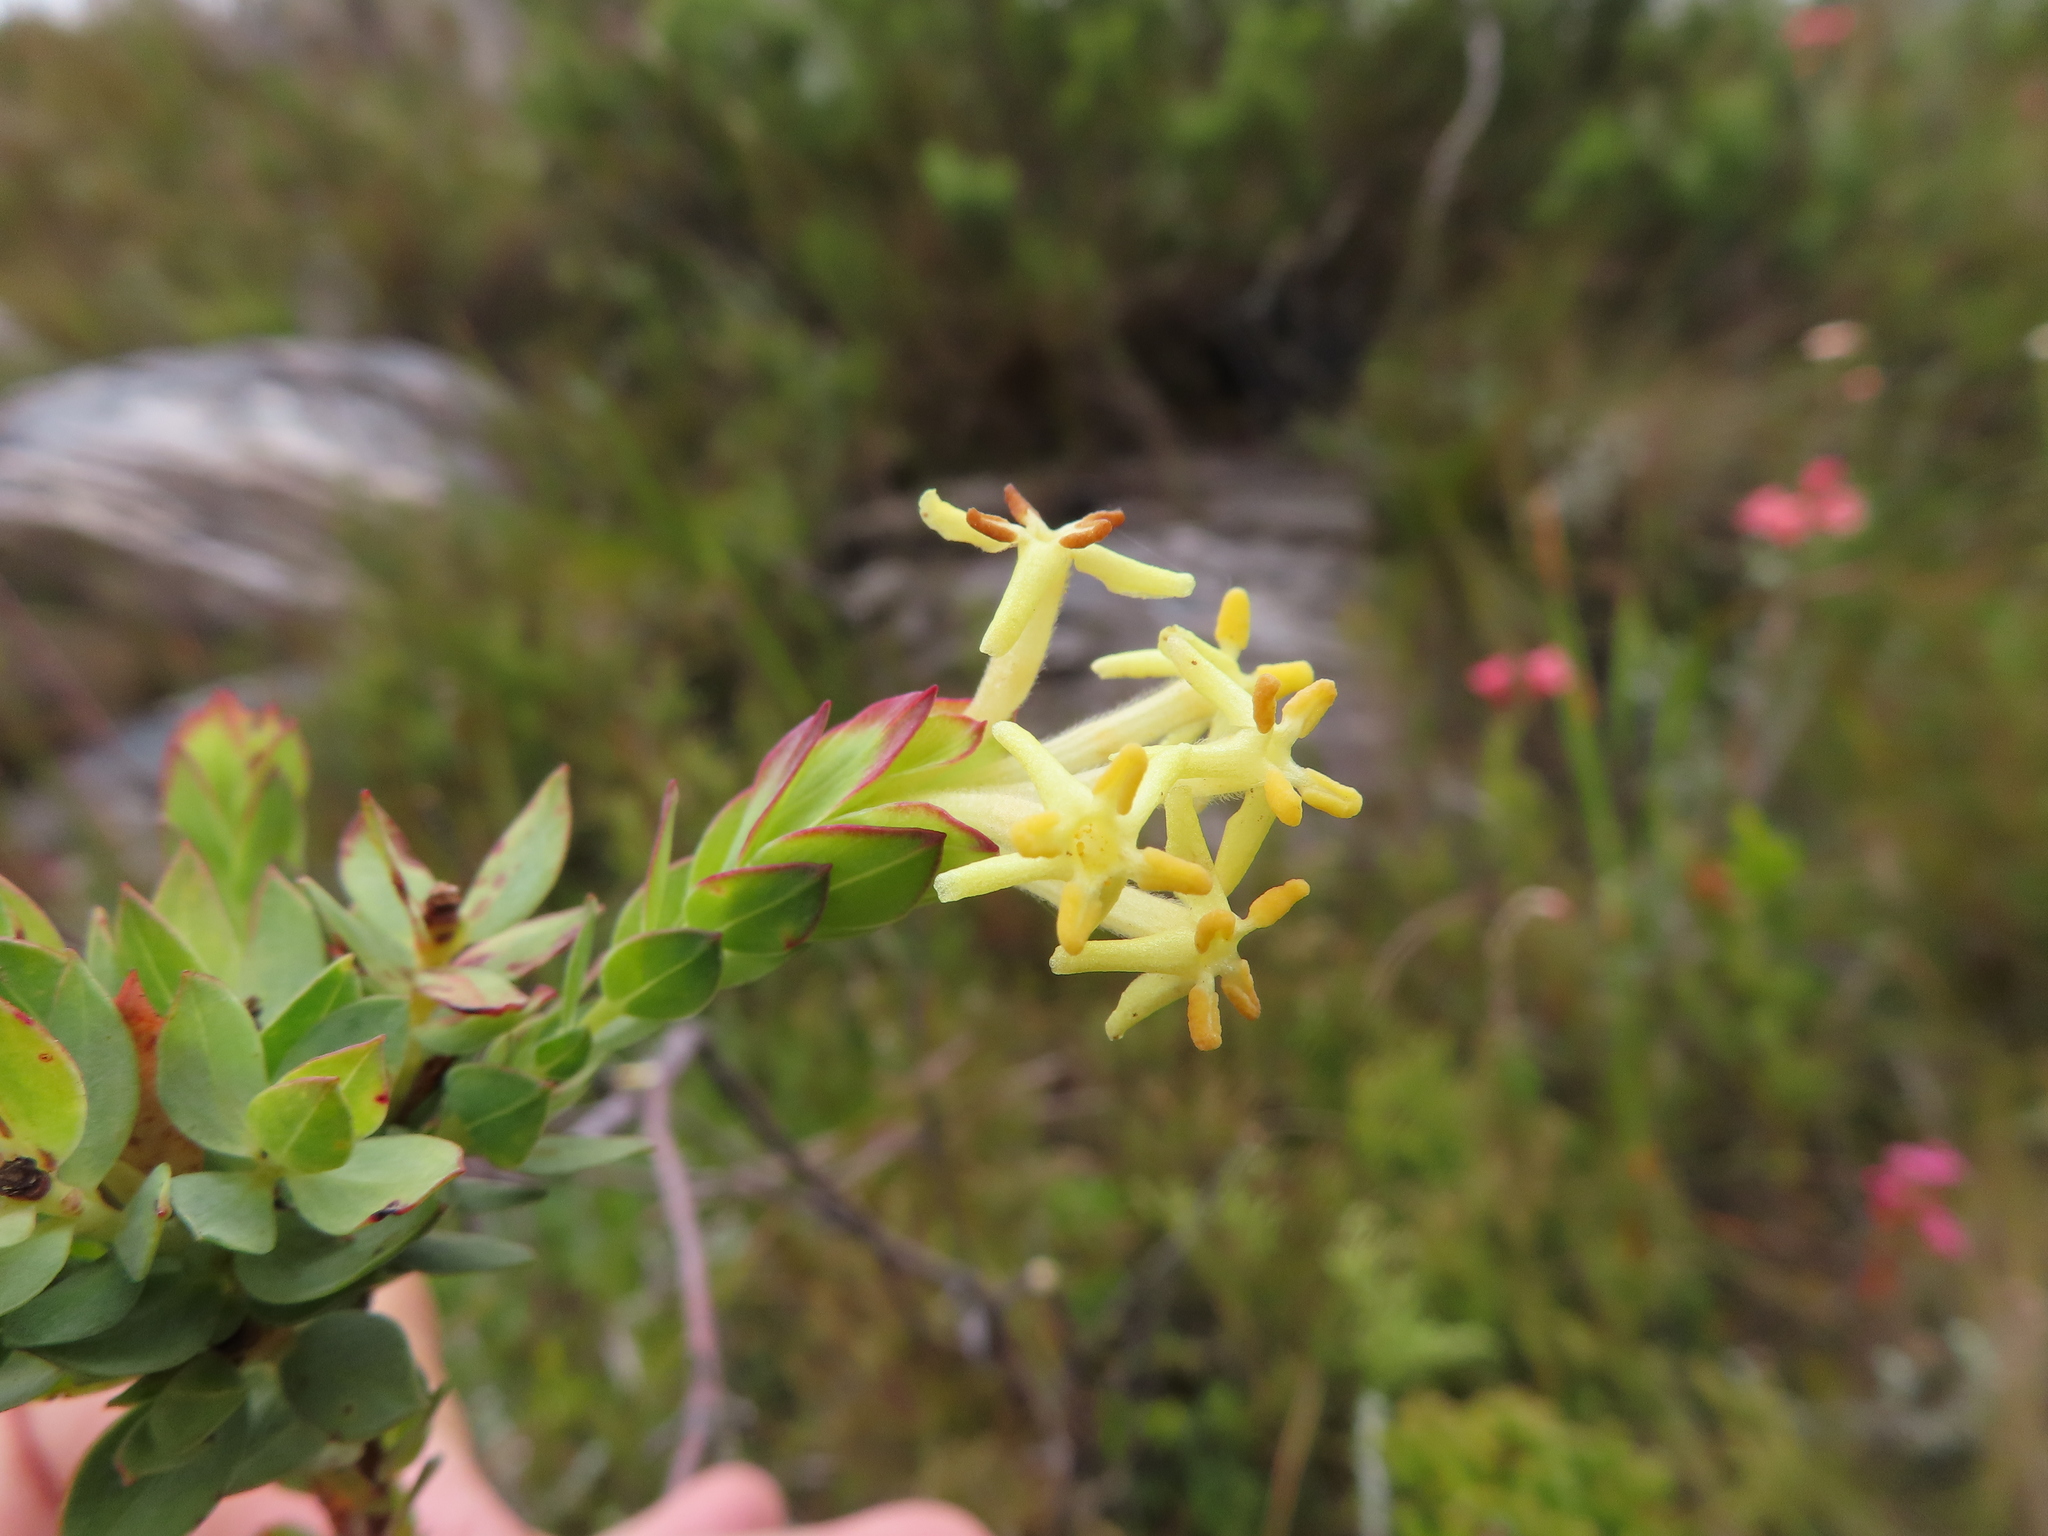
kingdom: Plantae
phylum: Tracheophyta
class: Magnoliopsida
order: Malvales
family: Thymelaeaceae
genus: Gnidia
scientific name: Gnidia oppositifolia
